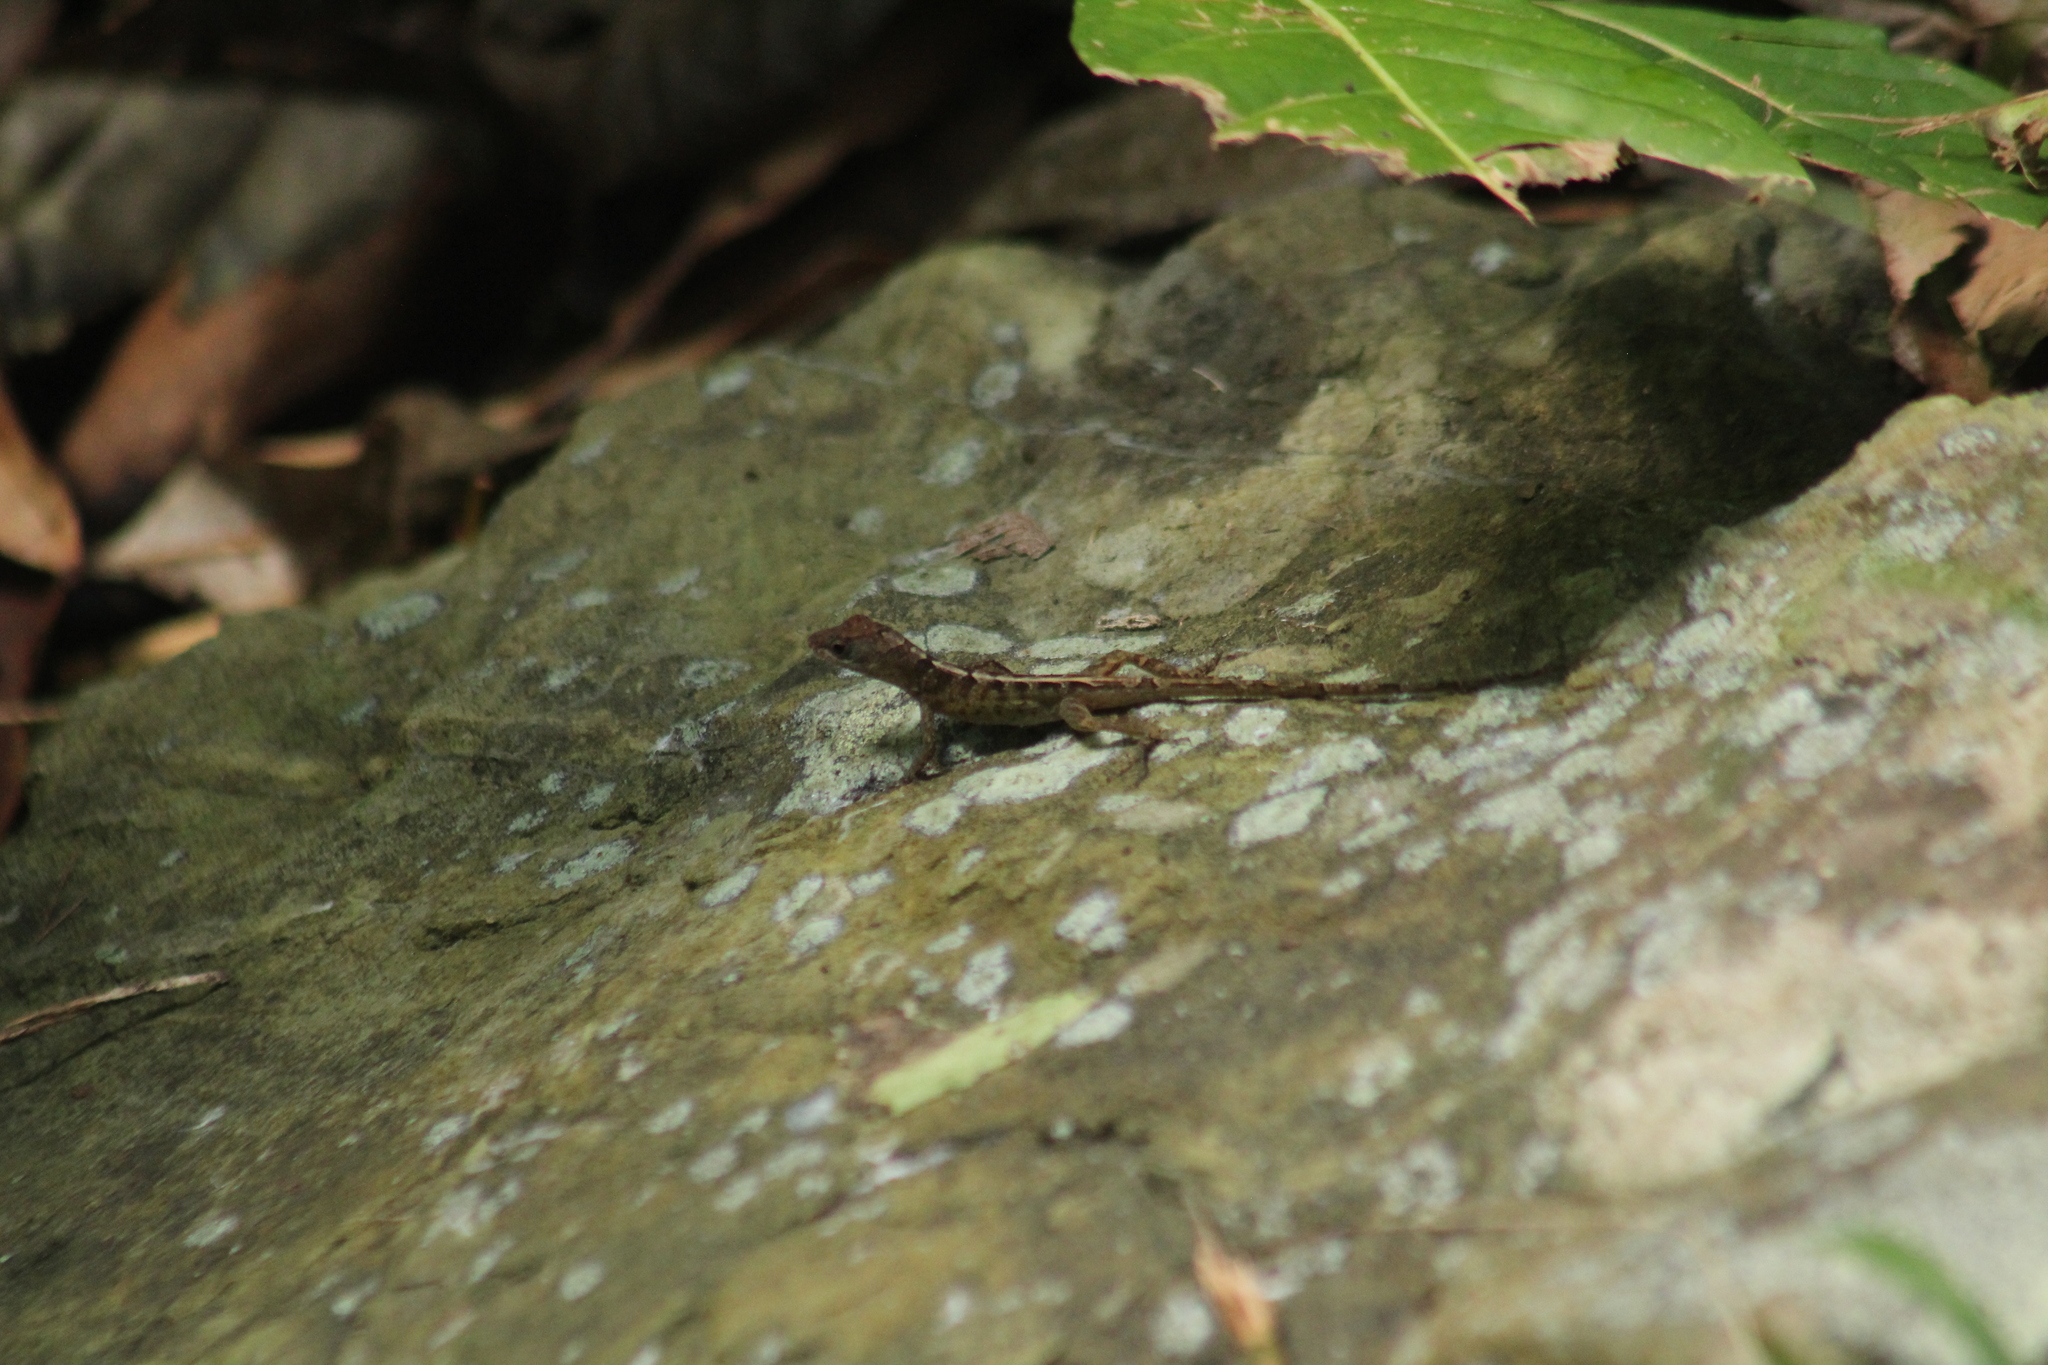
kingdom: Animalia
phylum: Chordata
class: Squamata
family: Dactyloidae
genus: Anolis
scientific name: Anolis pogus
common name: Anguilla bank bush anole
